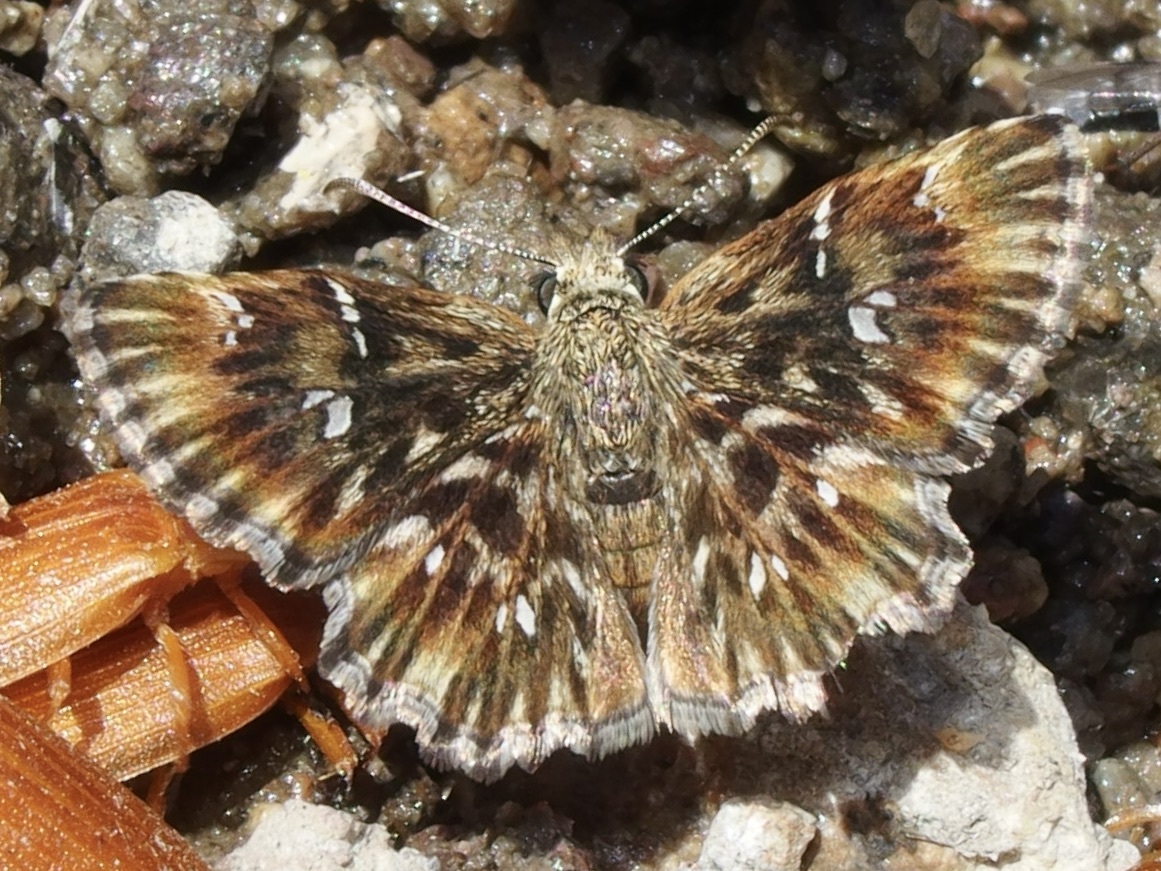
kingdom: Animalia
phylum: Arthropoda
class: Insecta
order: Lepidoptera
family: Hesperiidae
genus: Celotes
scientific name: Celotes nessus
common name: Common streaky-skipper
